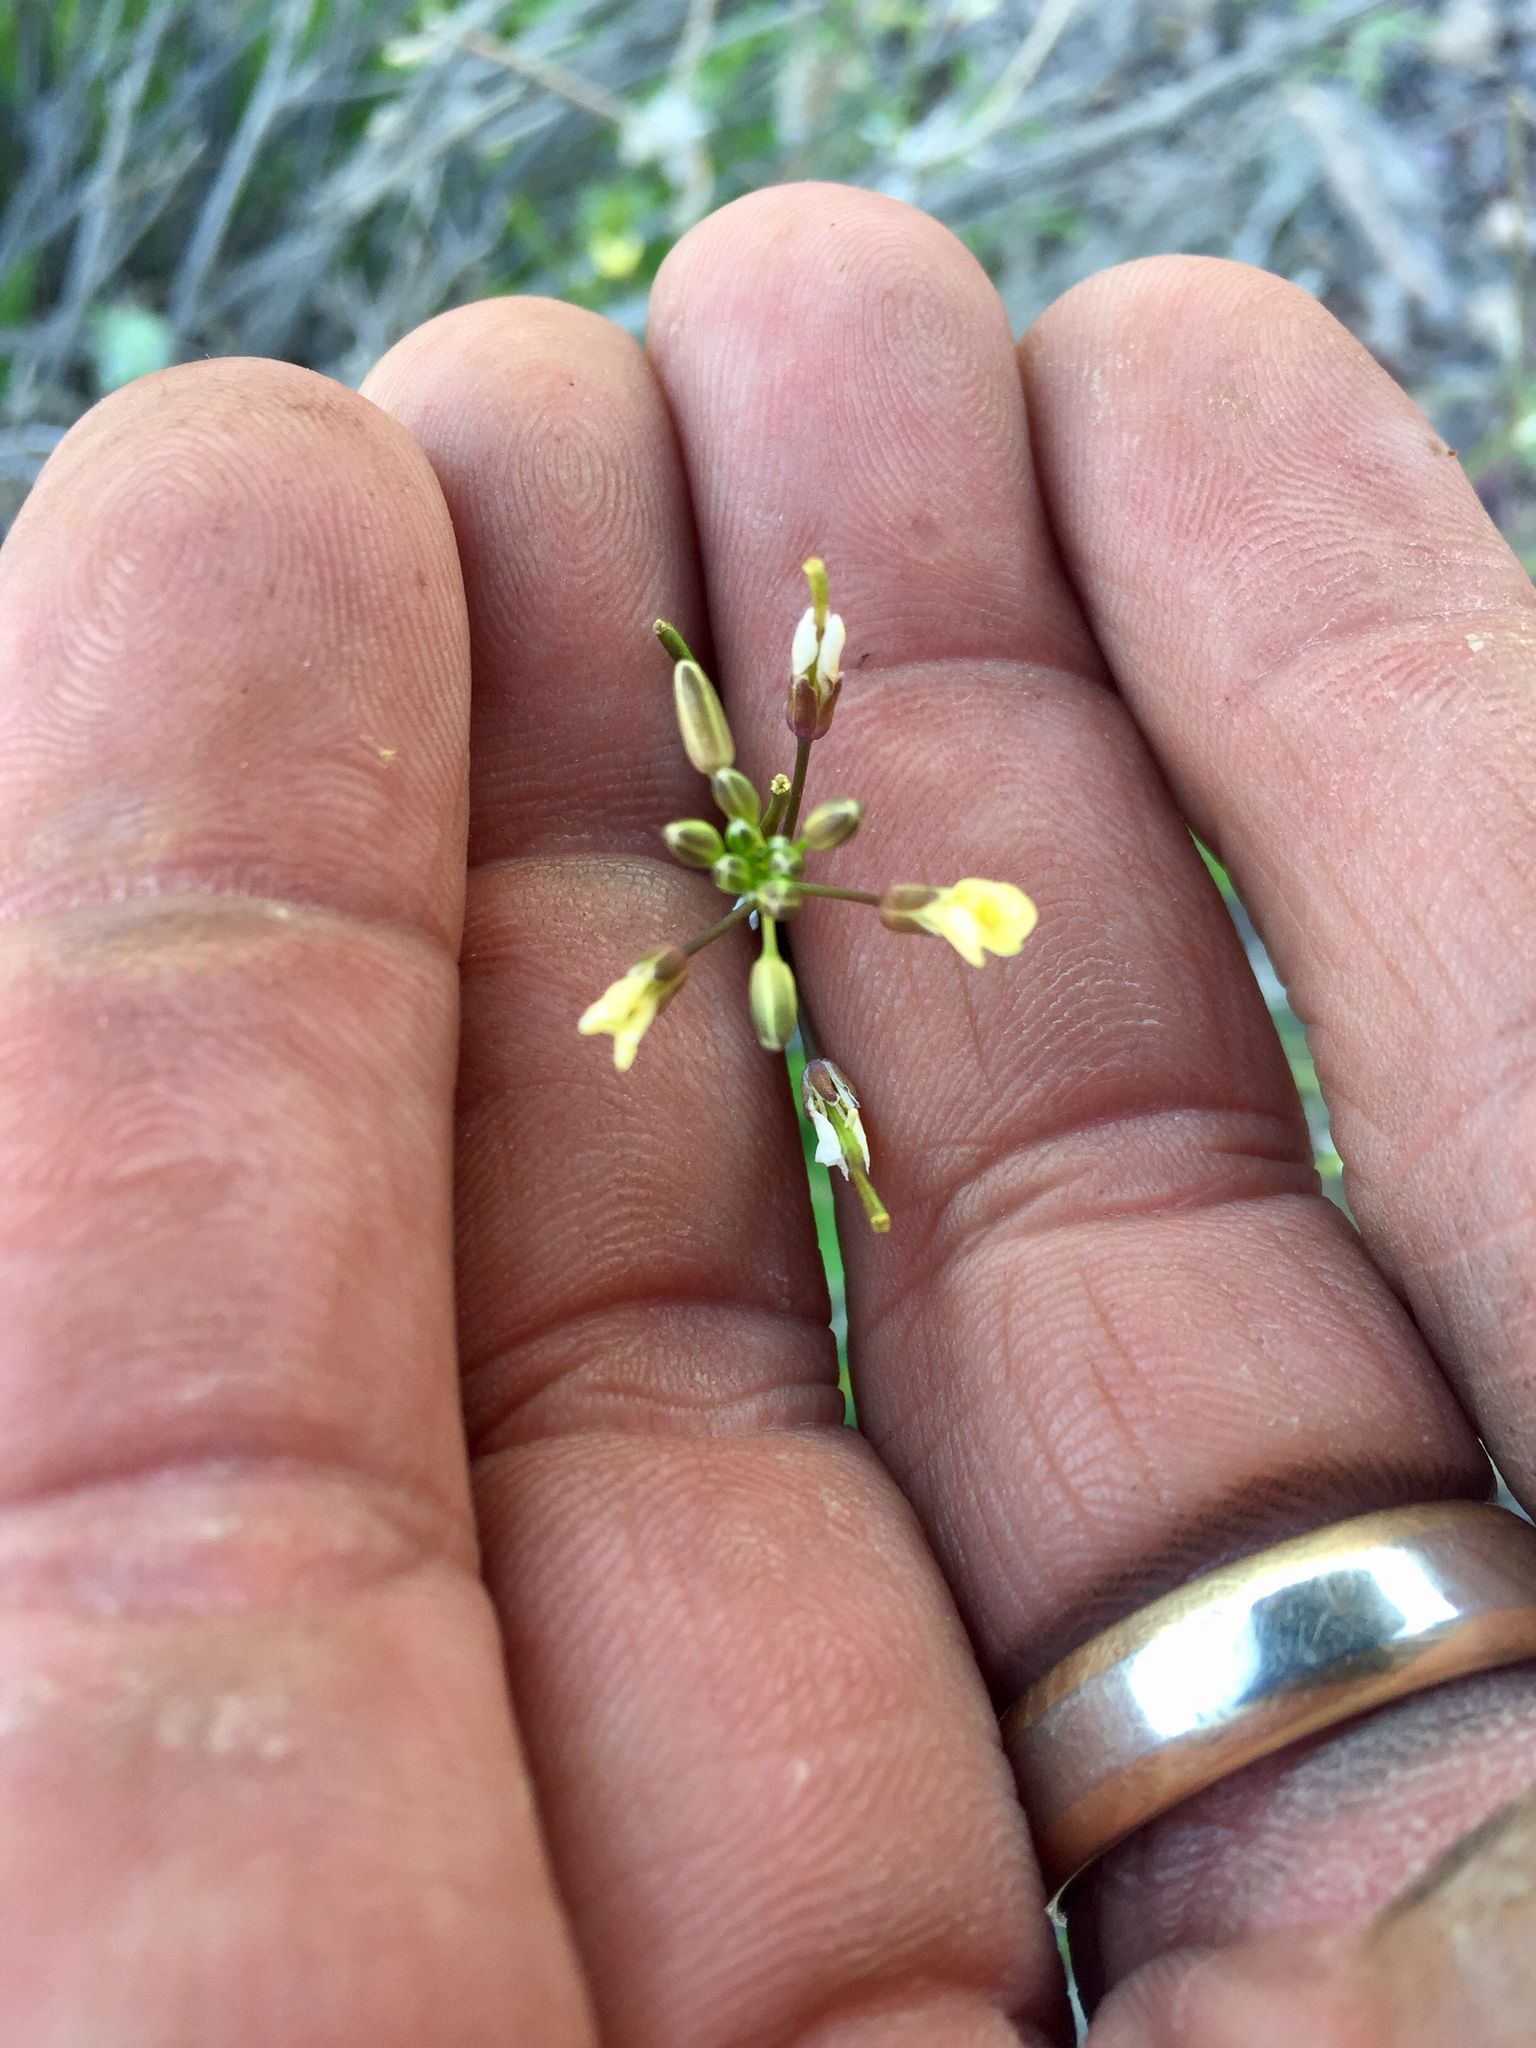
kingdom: Plantae
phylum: Tracheophyta
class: Magnoliopsida
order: Brassicales
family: Brassicaceae
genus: Brassica
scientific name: Brassica tournefortii
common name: Pale cabbage
